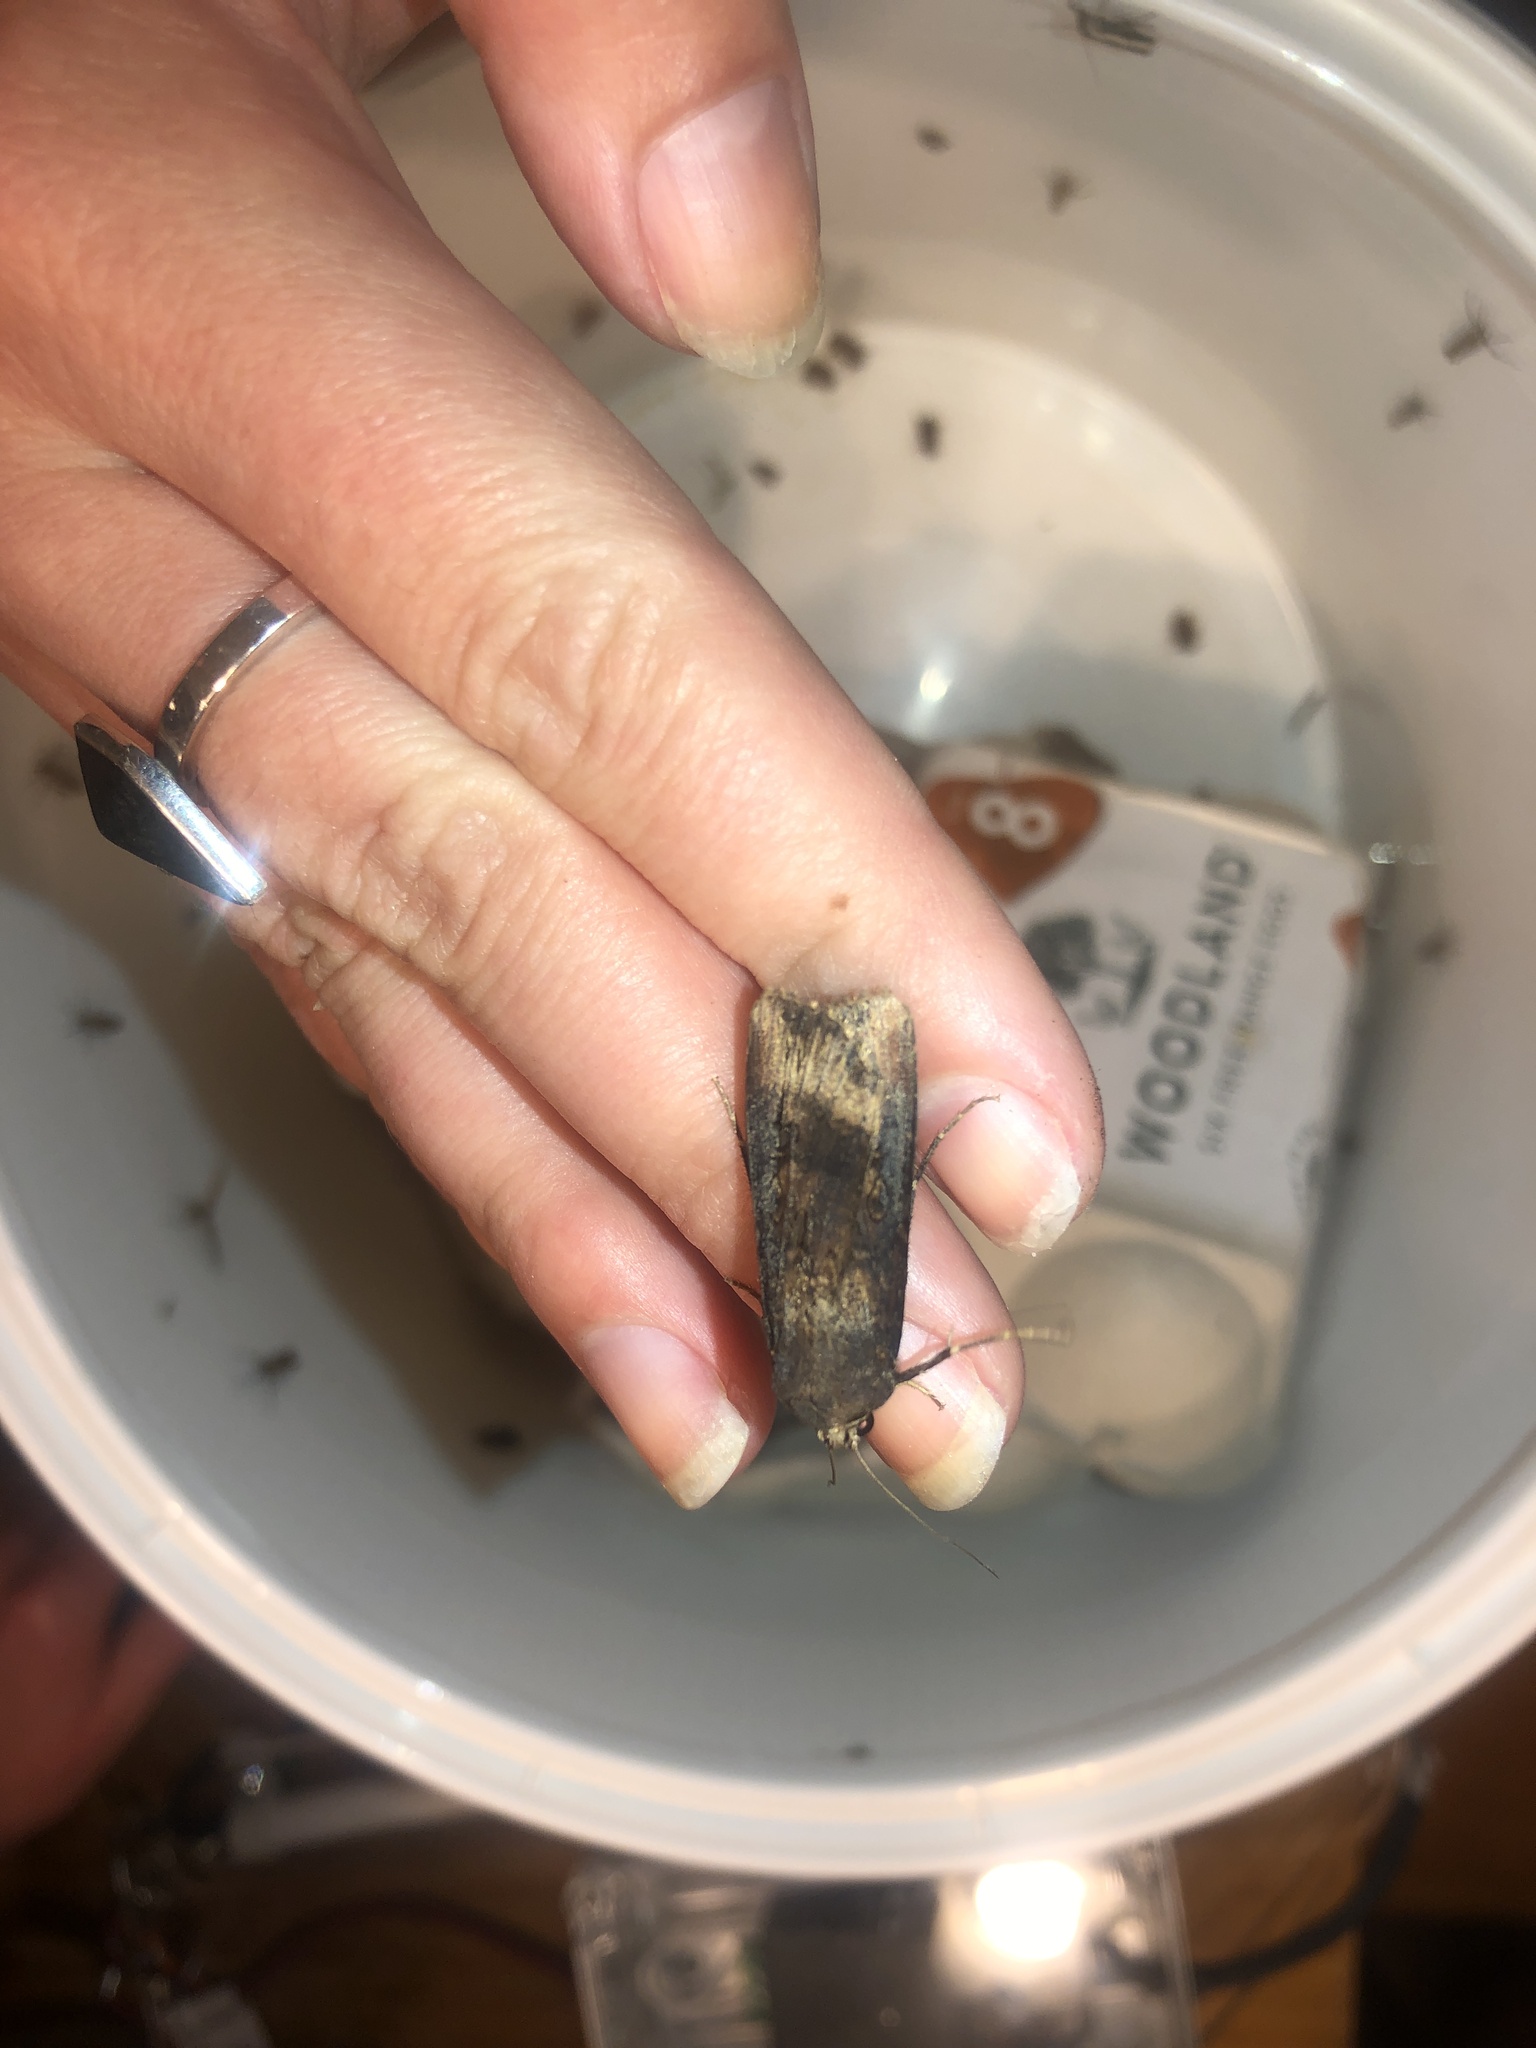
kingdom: Animalia
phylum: Arthropoda
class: Insecta
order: Lepidoptera
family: Noctuidae
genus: Agrotis
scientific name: Agrotis ipsilon
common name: Dark sword-grass
